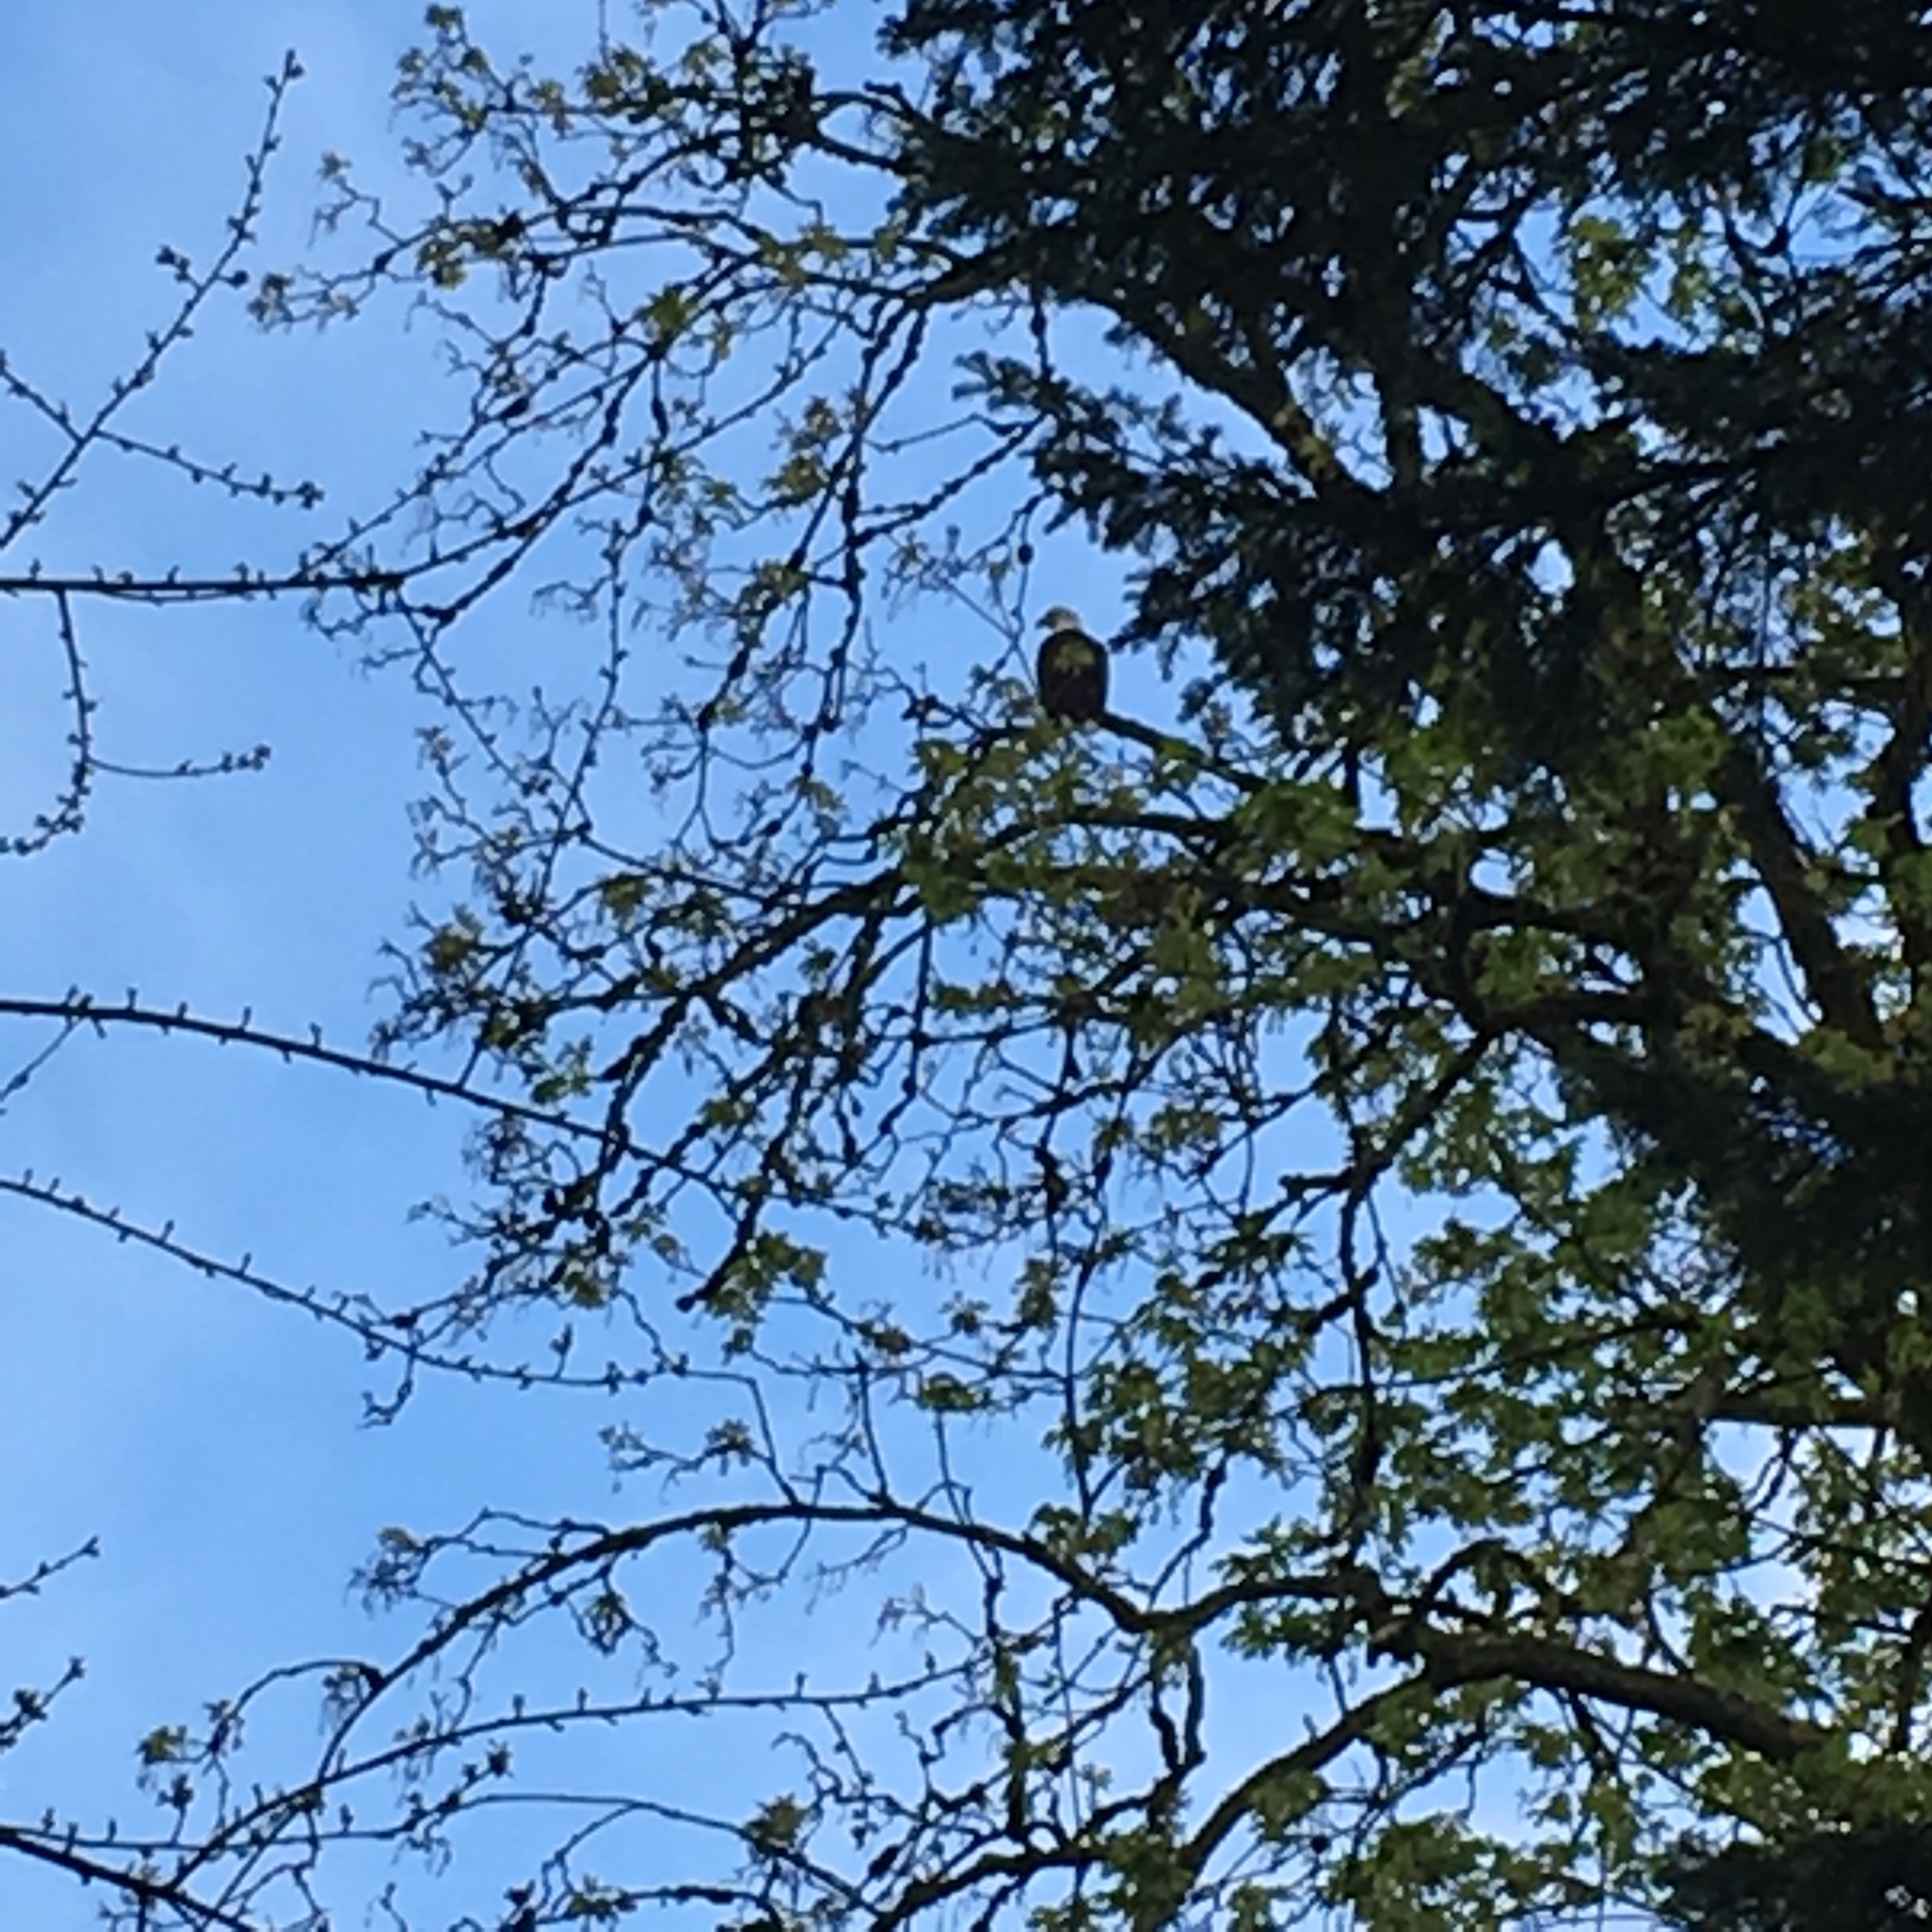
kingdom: Animalia
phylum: Chordata
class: Aves
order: Accipitriformes
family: Accipitridae
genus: Haliaeetus
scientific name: Haliaeetus leucocephalus
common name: Bald eagle
